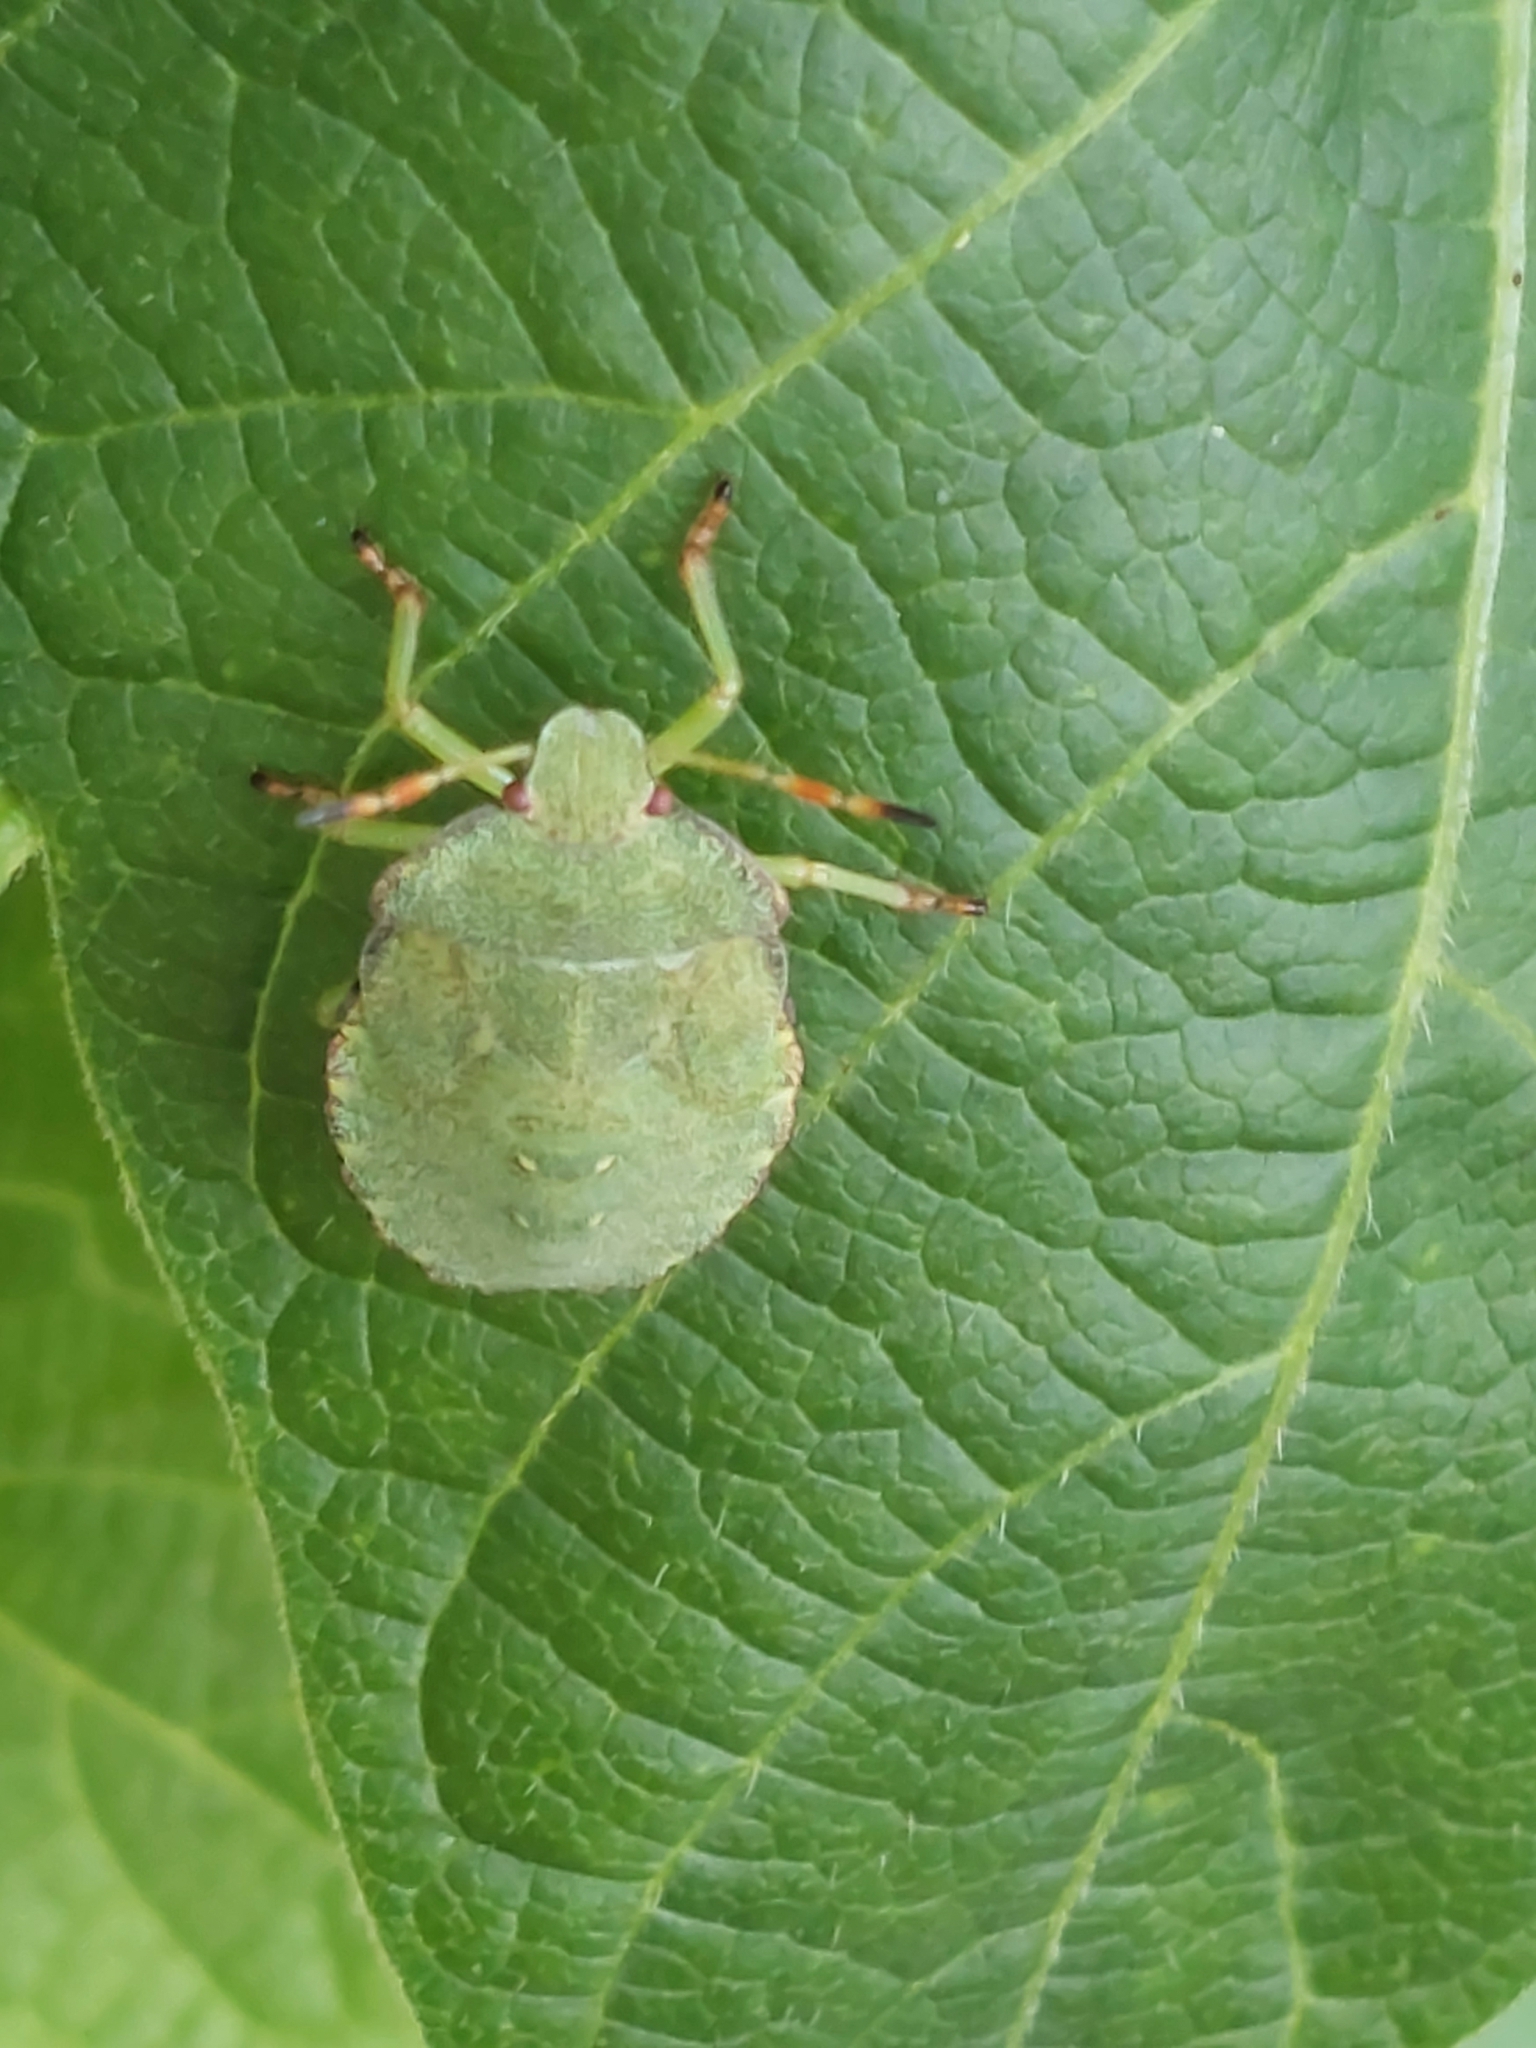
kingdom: Animalia
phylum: Arthropoda
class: Insecta
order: Hemiptera
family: Pentatomidae
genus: Palomena
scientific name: Palomena prasina
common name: Green shieldbug
